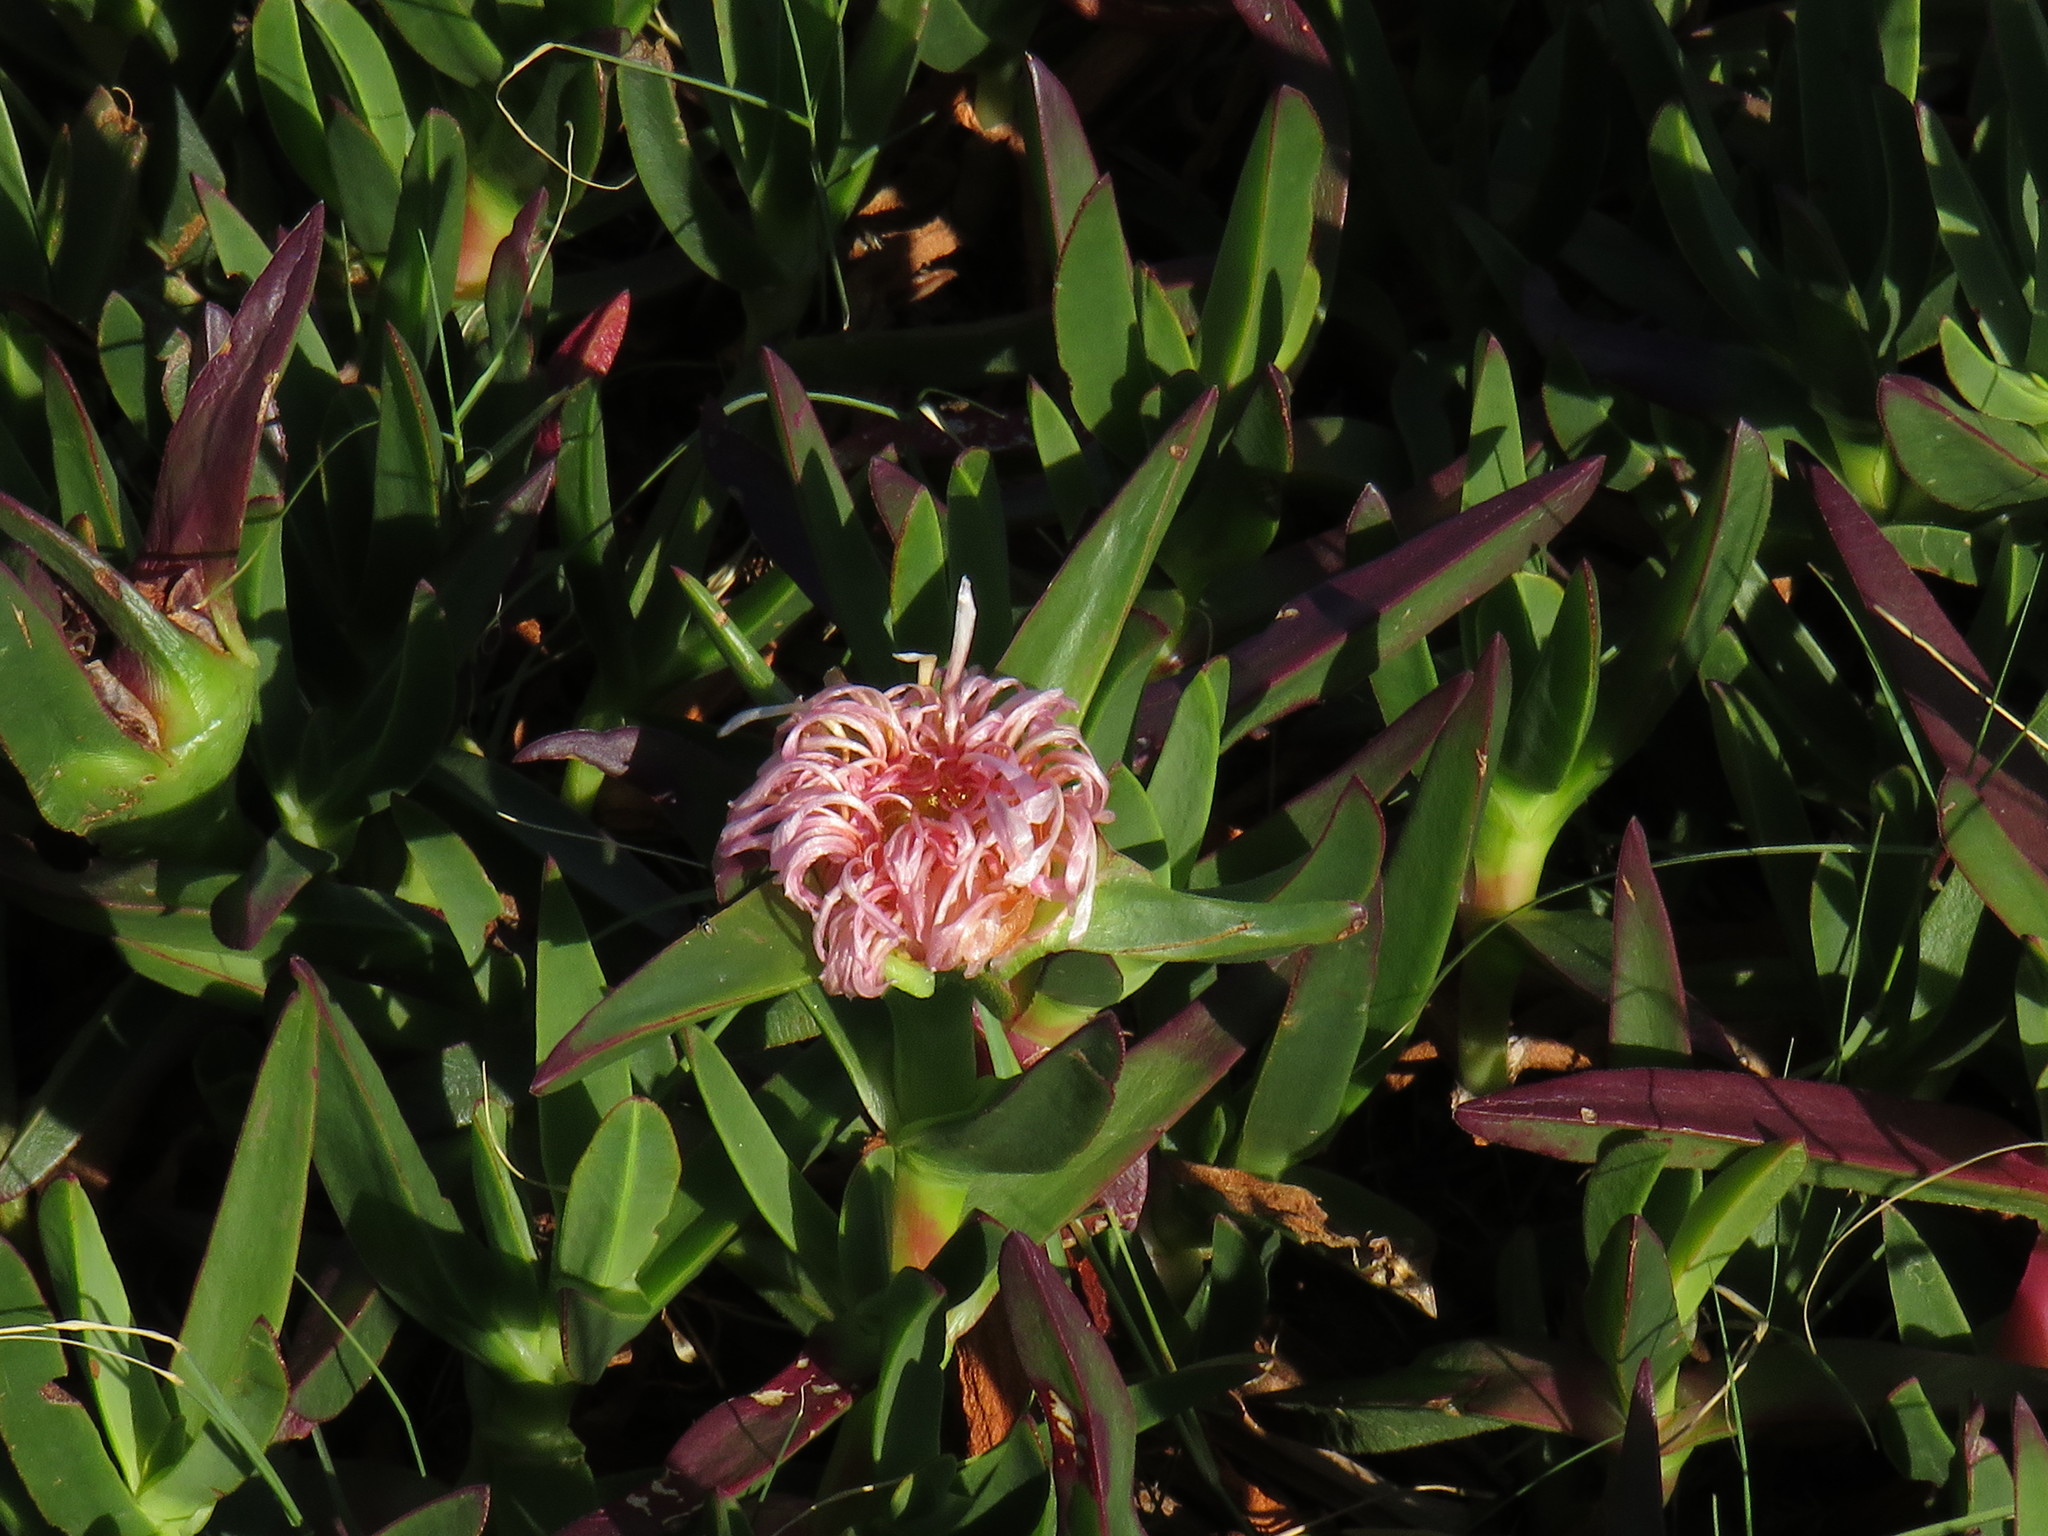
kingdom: Plantae
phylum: Tracheophyta
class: Magnoliopsida
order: Caryophyllales
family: Aizoaceae
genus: Carpobrotus
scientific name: Carpobrotus edulis
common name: Hottentot-fig
